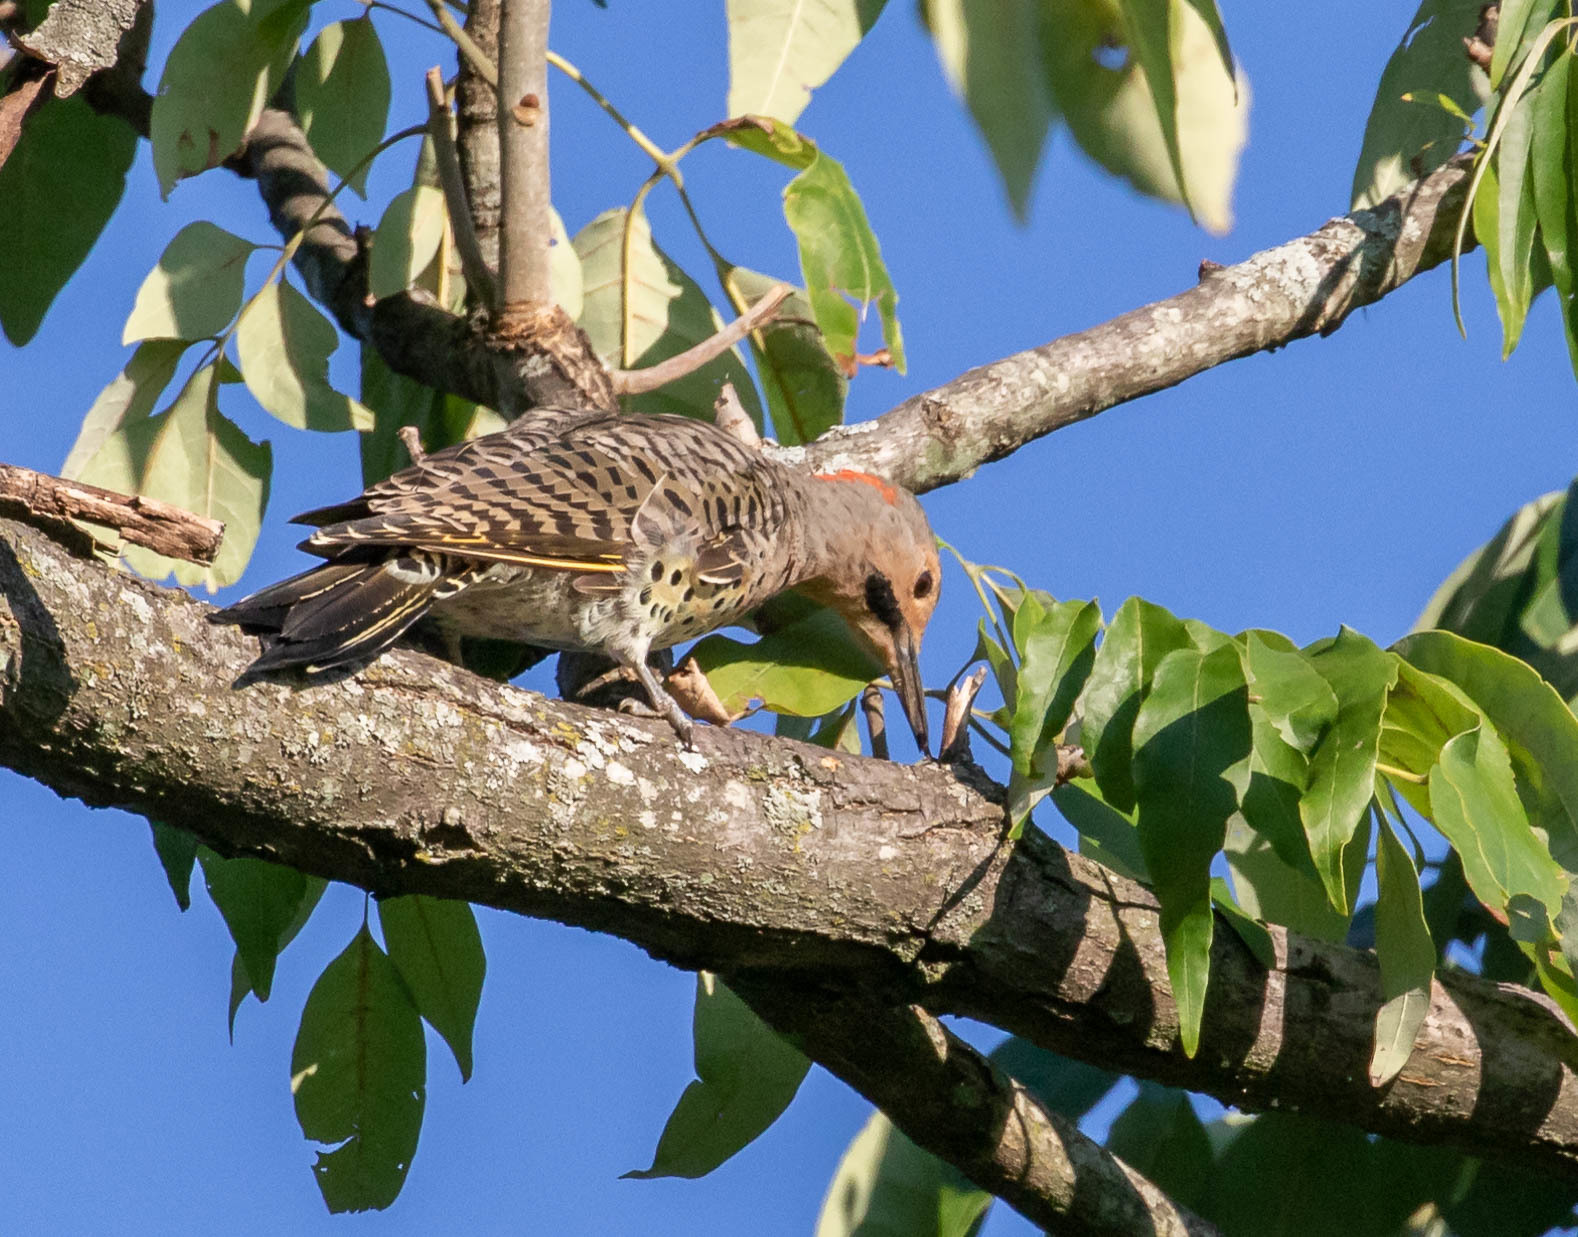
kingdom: Animalia
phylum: Chordata
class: Aves
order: Piciformes
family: Picidae
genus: Colaptes
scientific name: Colaptes auratus
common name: Northern flicker
